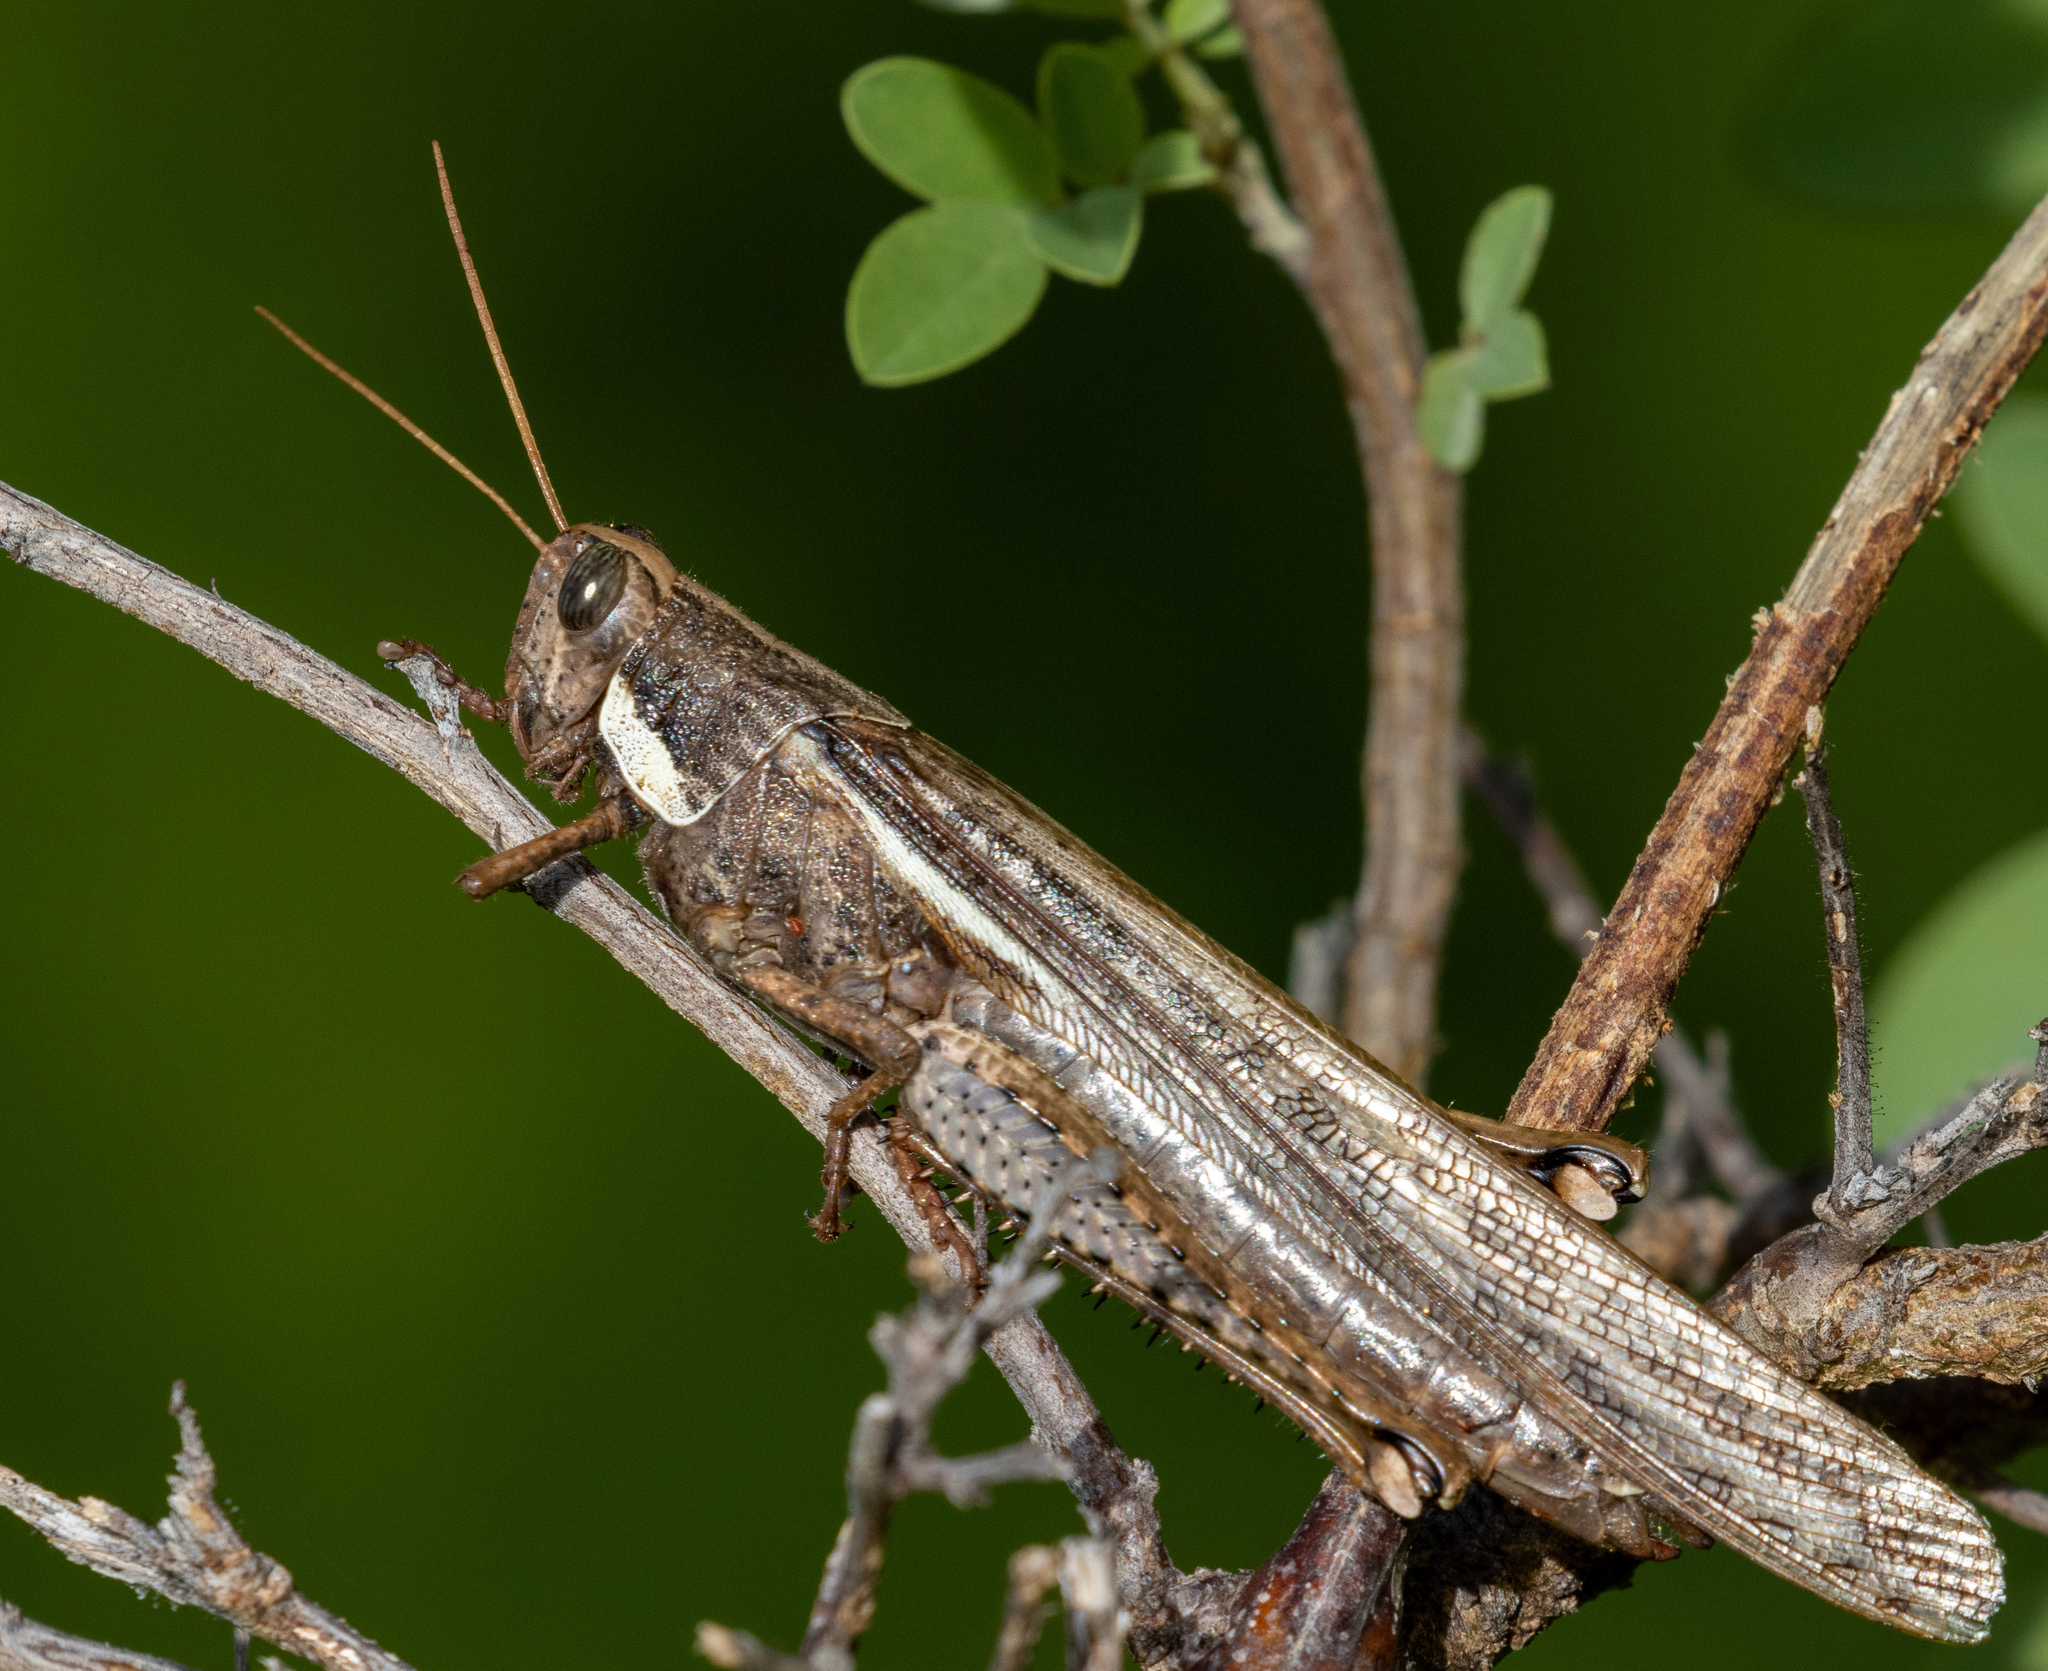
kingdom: Animalia
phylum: Arthropoda
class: Insecta
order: Orthoptera
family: Acrididae
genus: Schistocerca
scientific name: Schistocerca flavofasciata
